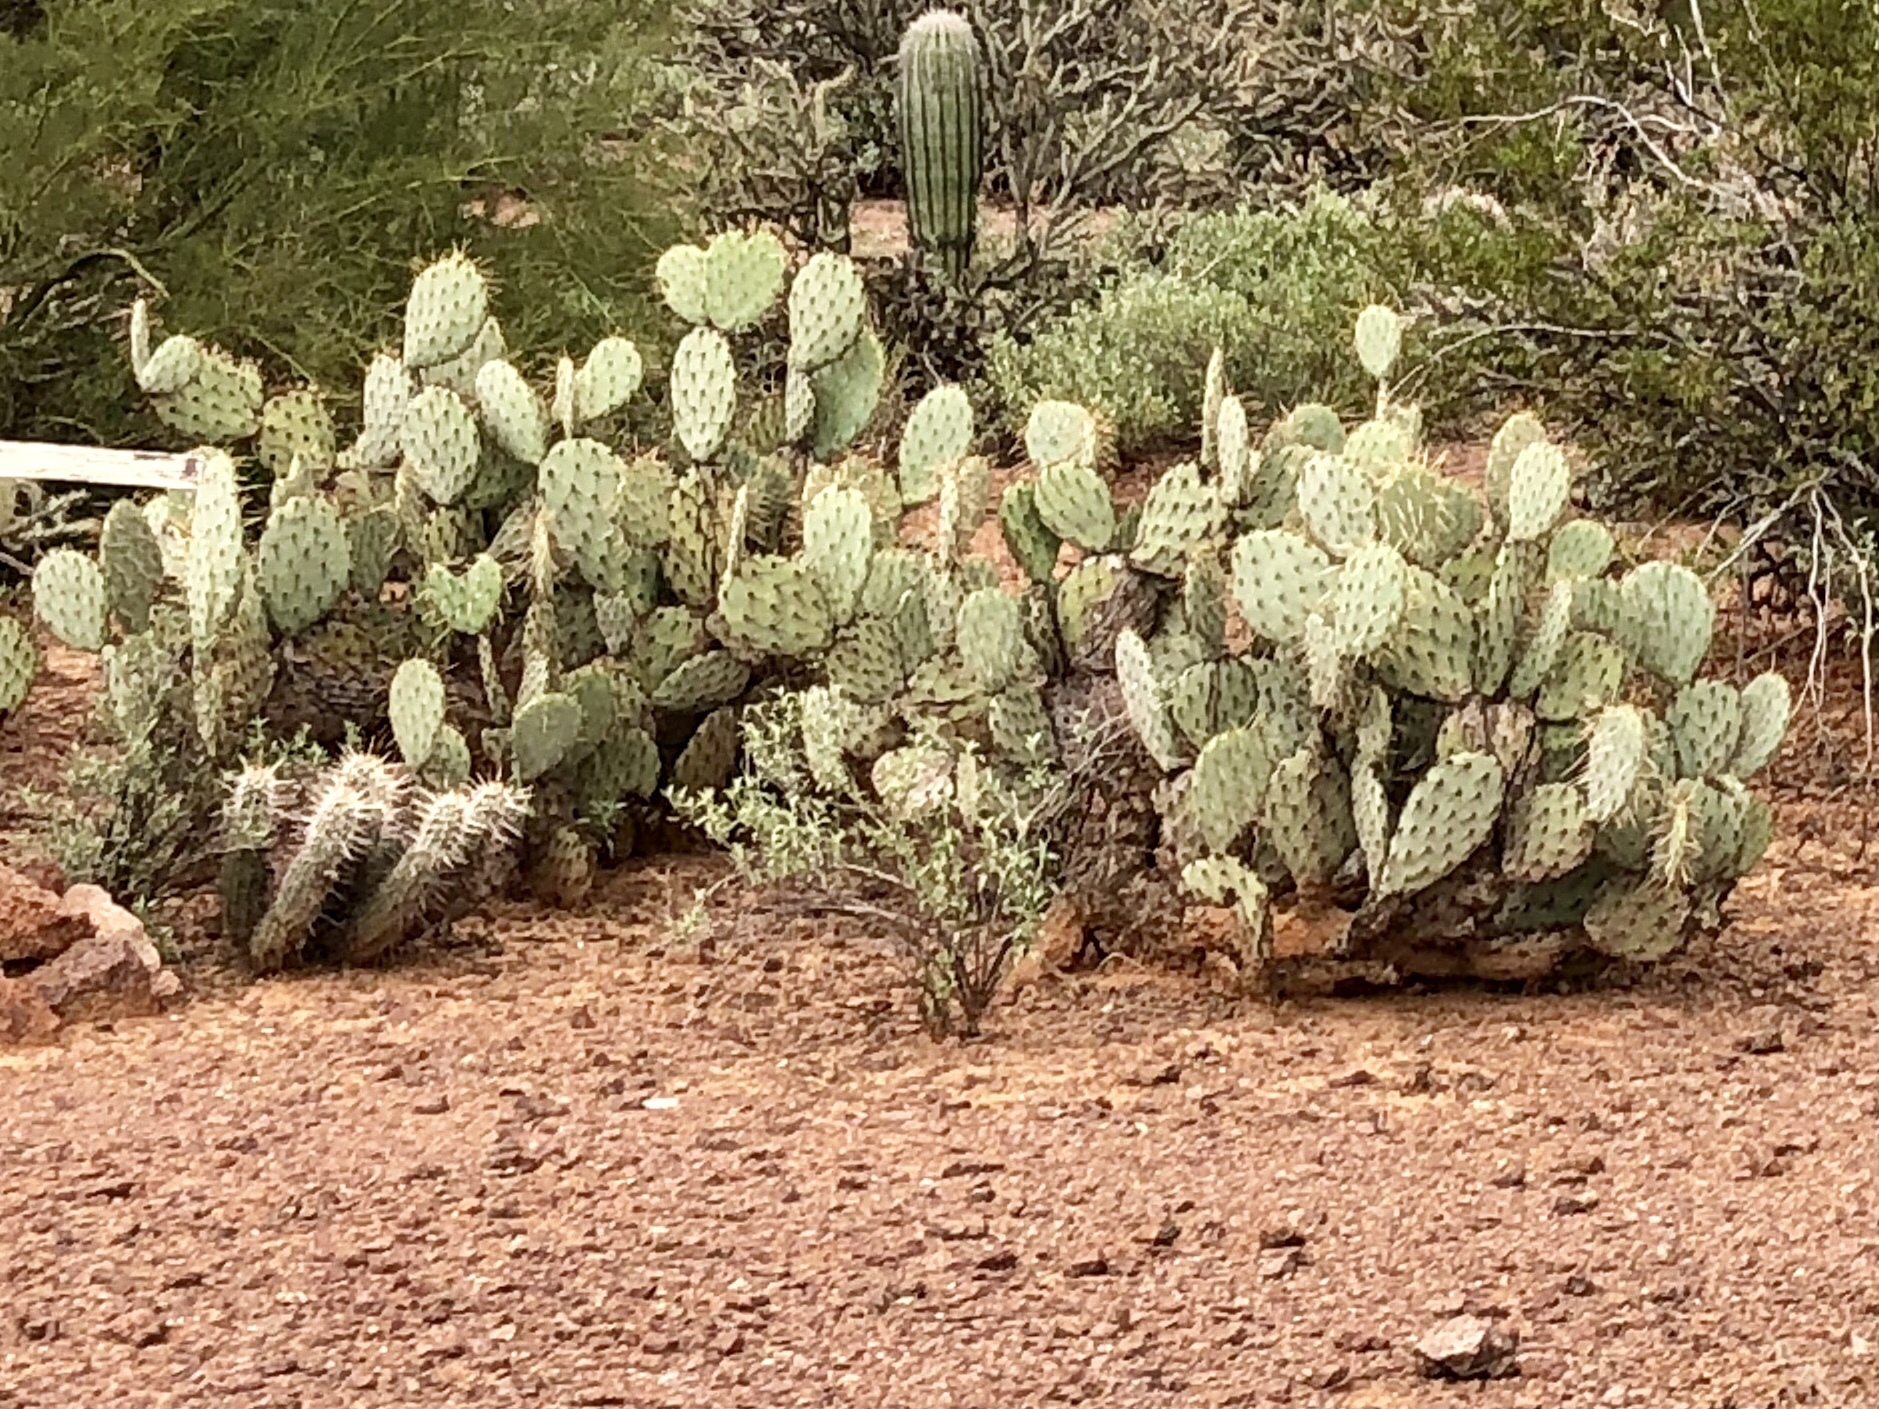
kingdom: Plantae
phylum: Tracheophyta
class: Magnoliopsida
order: Caryophyllales
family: Cactaceae
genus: Opuntia
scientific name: Opuntia engelmannii
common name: Cactus-apple
